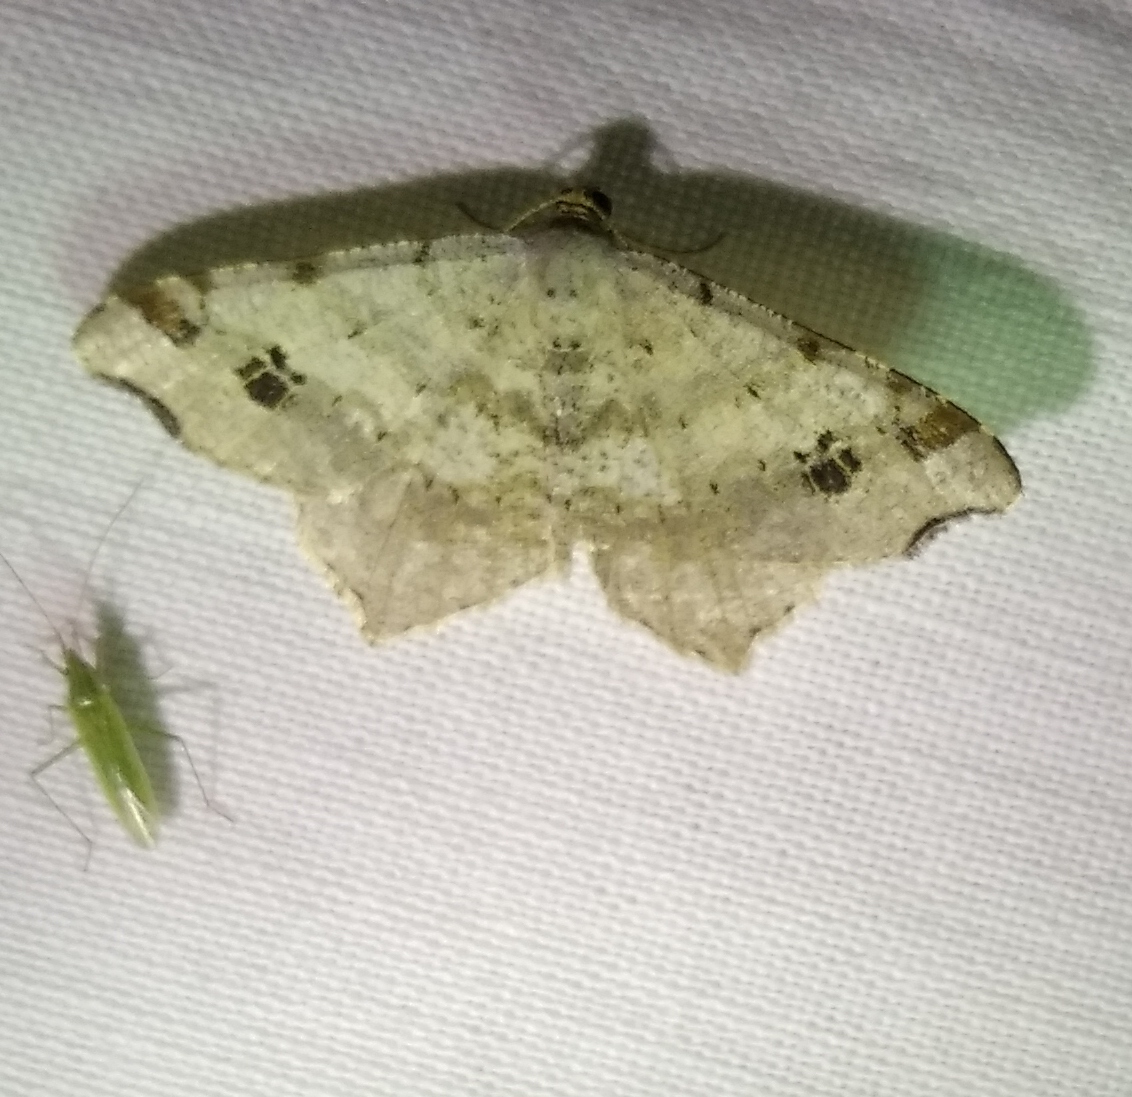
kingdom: Animalia
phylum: Arthropoda
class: Insecta
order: Lepidoptera
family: Geometridae
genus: Macaria
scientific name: Macaria alternata
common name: Sharp-angled peacock
